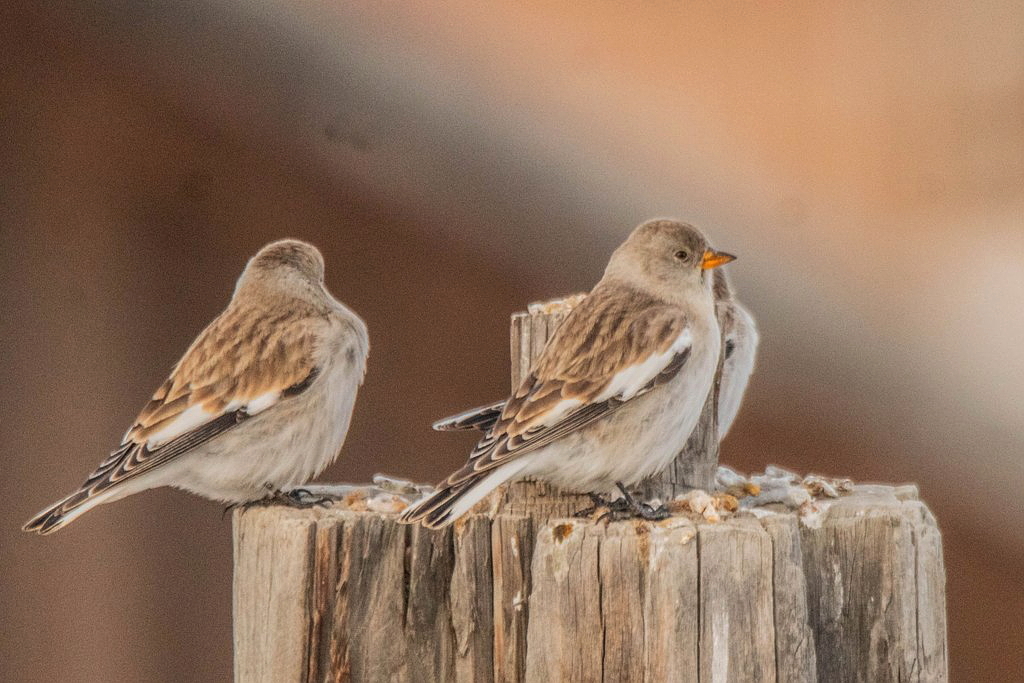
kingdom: Animalia
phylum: Chordata
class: Aves
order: Passeriformes
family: Passeridae
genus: Montifringilla
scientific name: Montifringilla nivalis
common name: White-winged snowfinch
